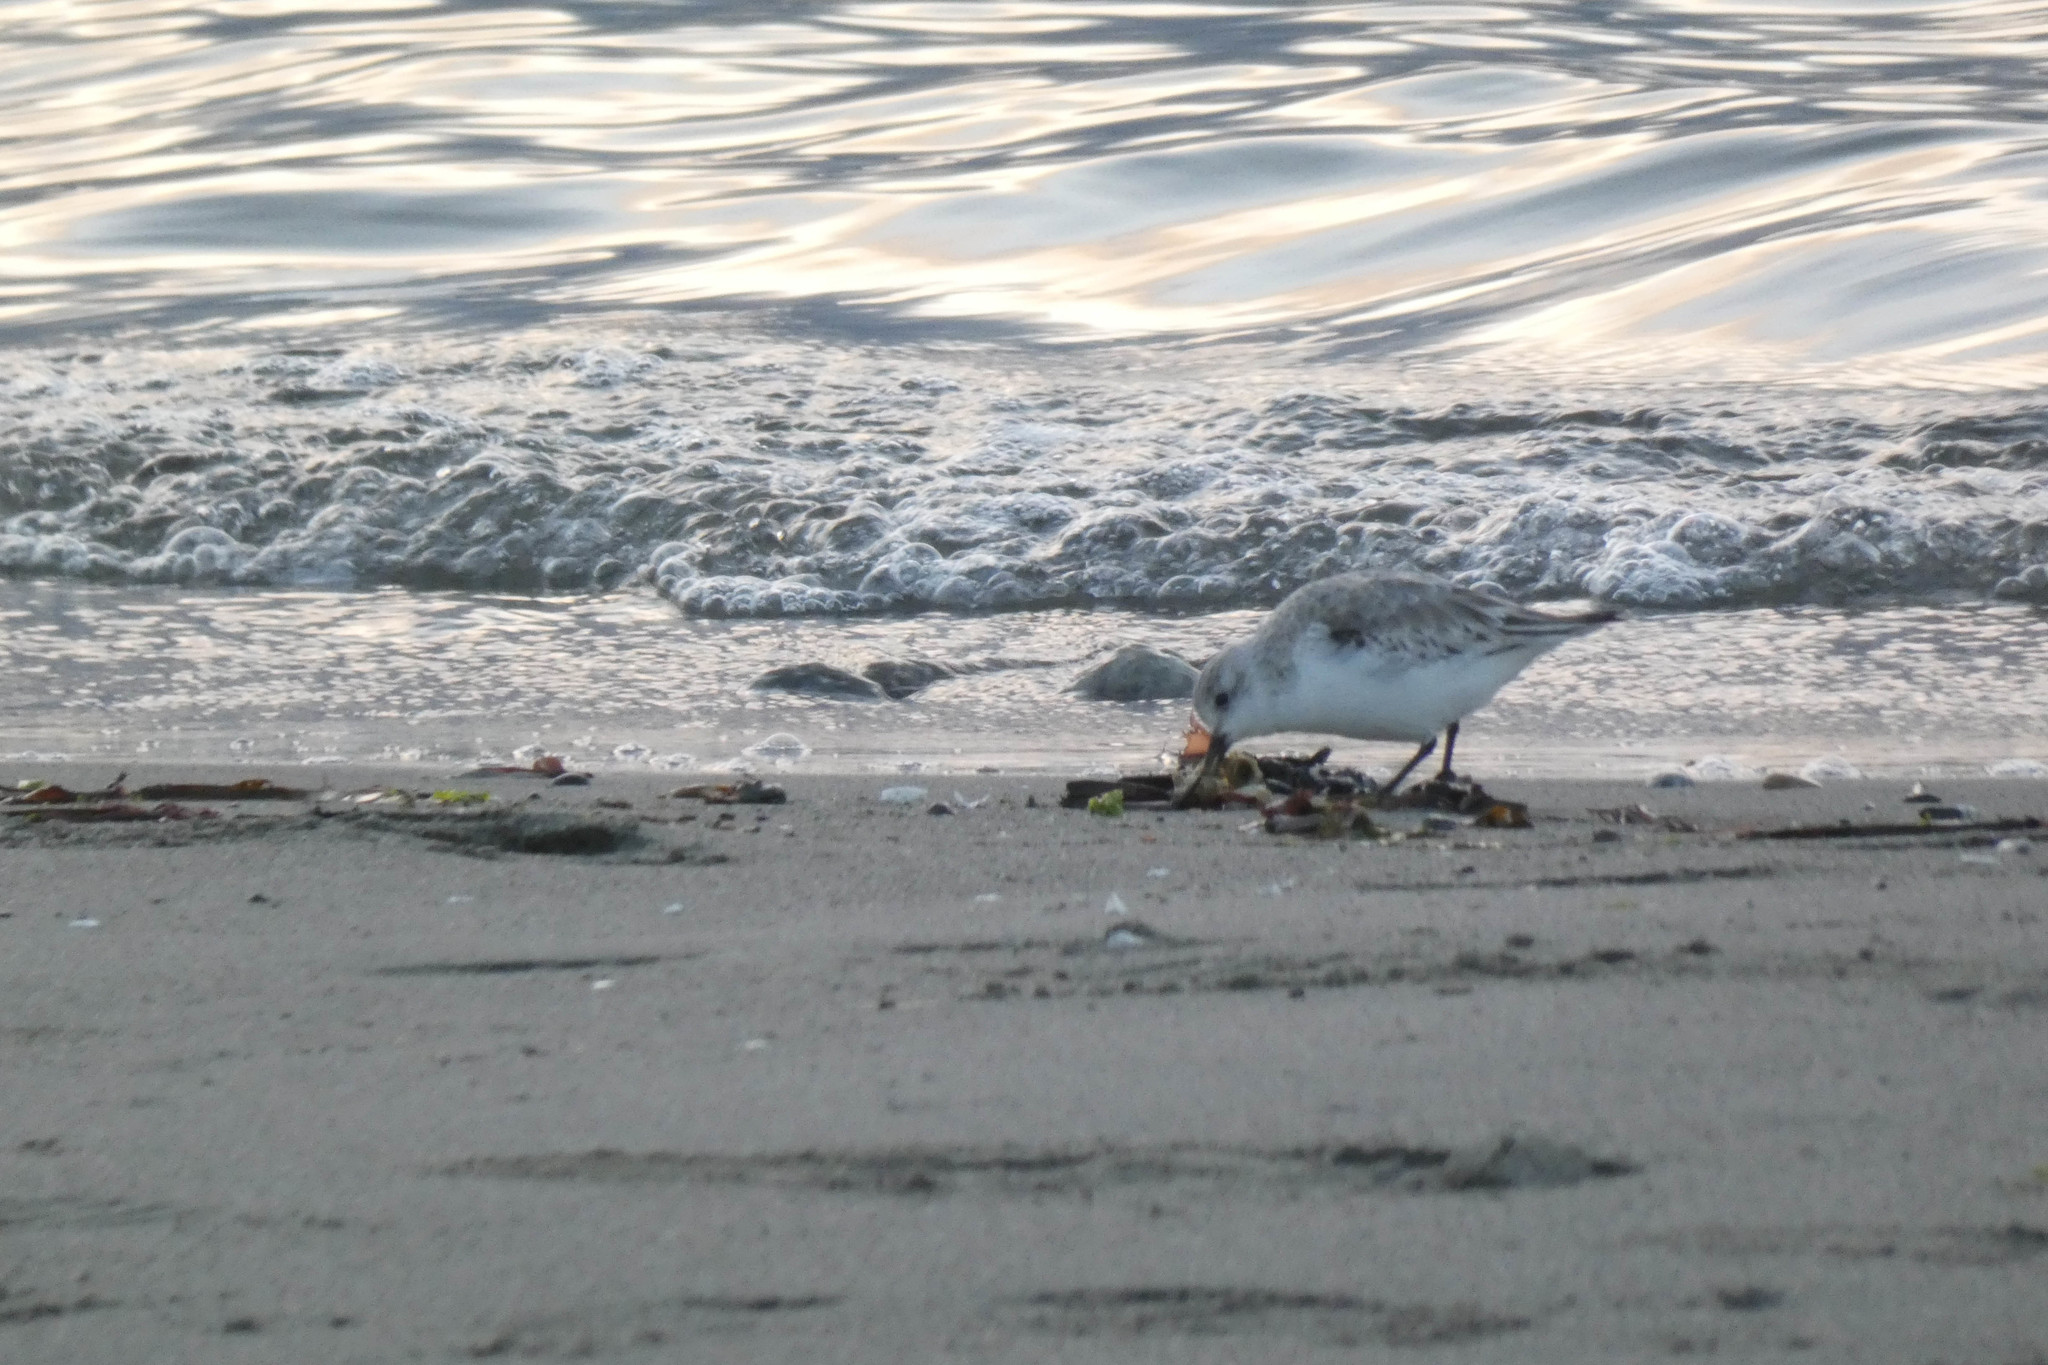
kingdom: Animalia
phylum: Chordata
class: Aves
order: Charadriiformes
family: Scolopacidae
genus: Calidris
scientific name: Calidris alba
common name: Sanderling
